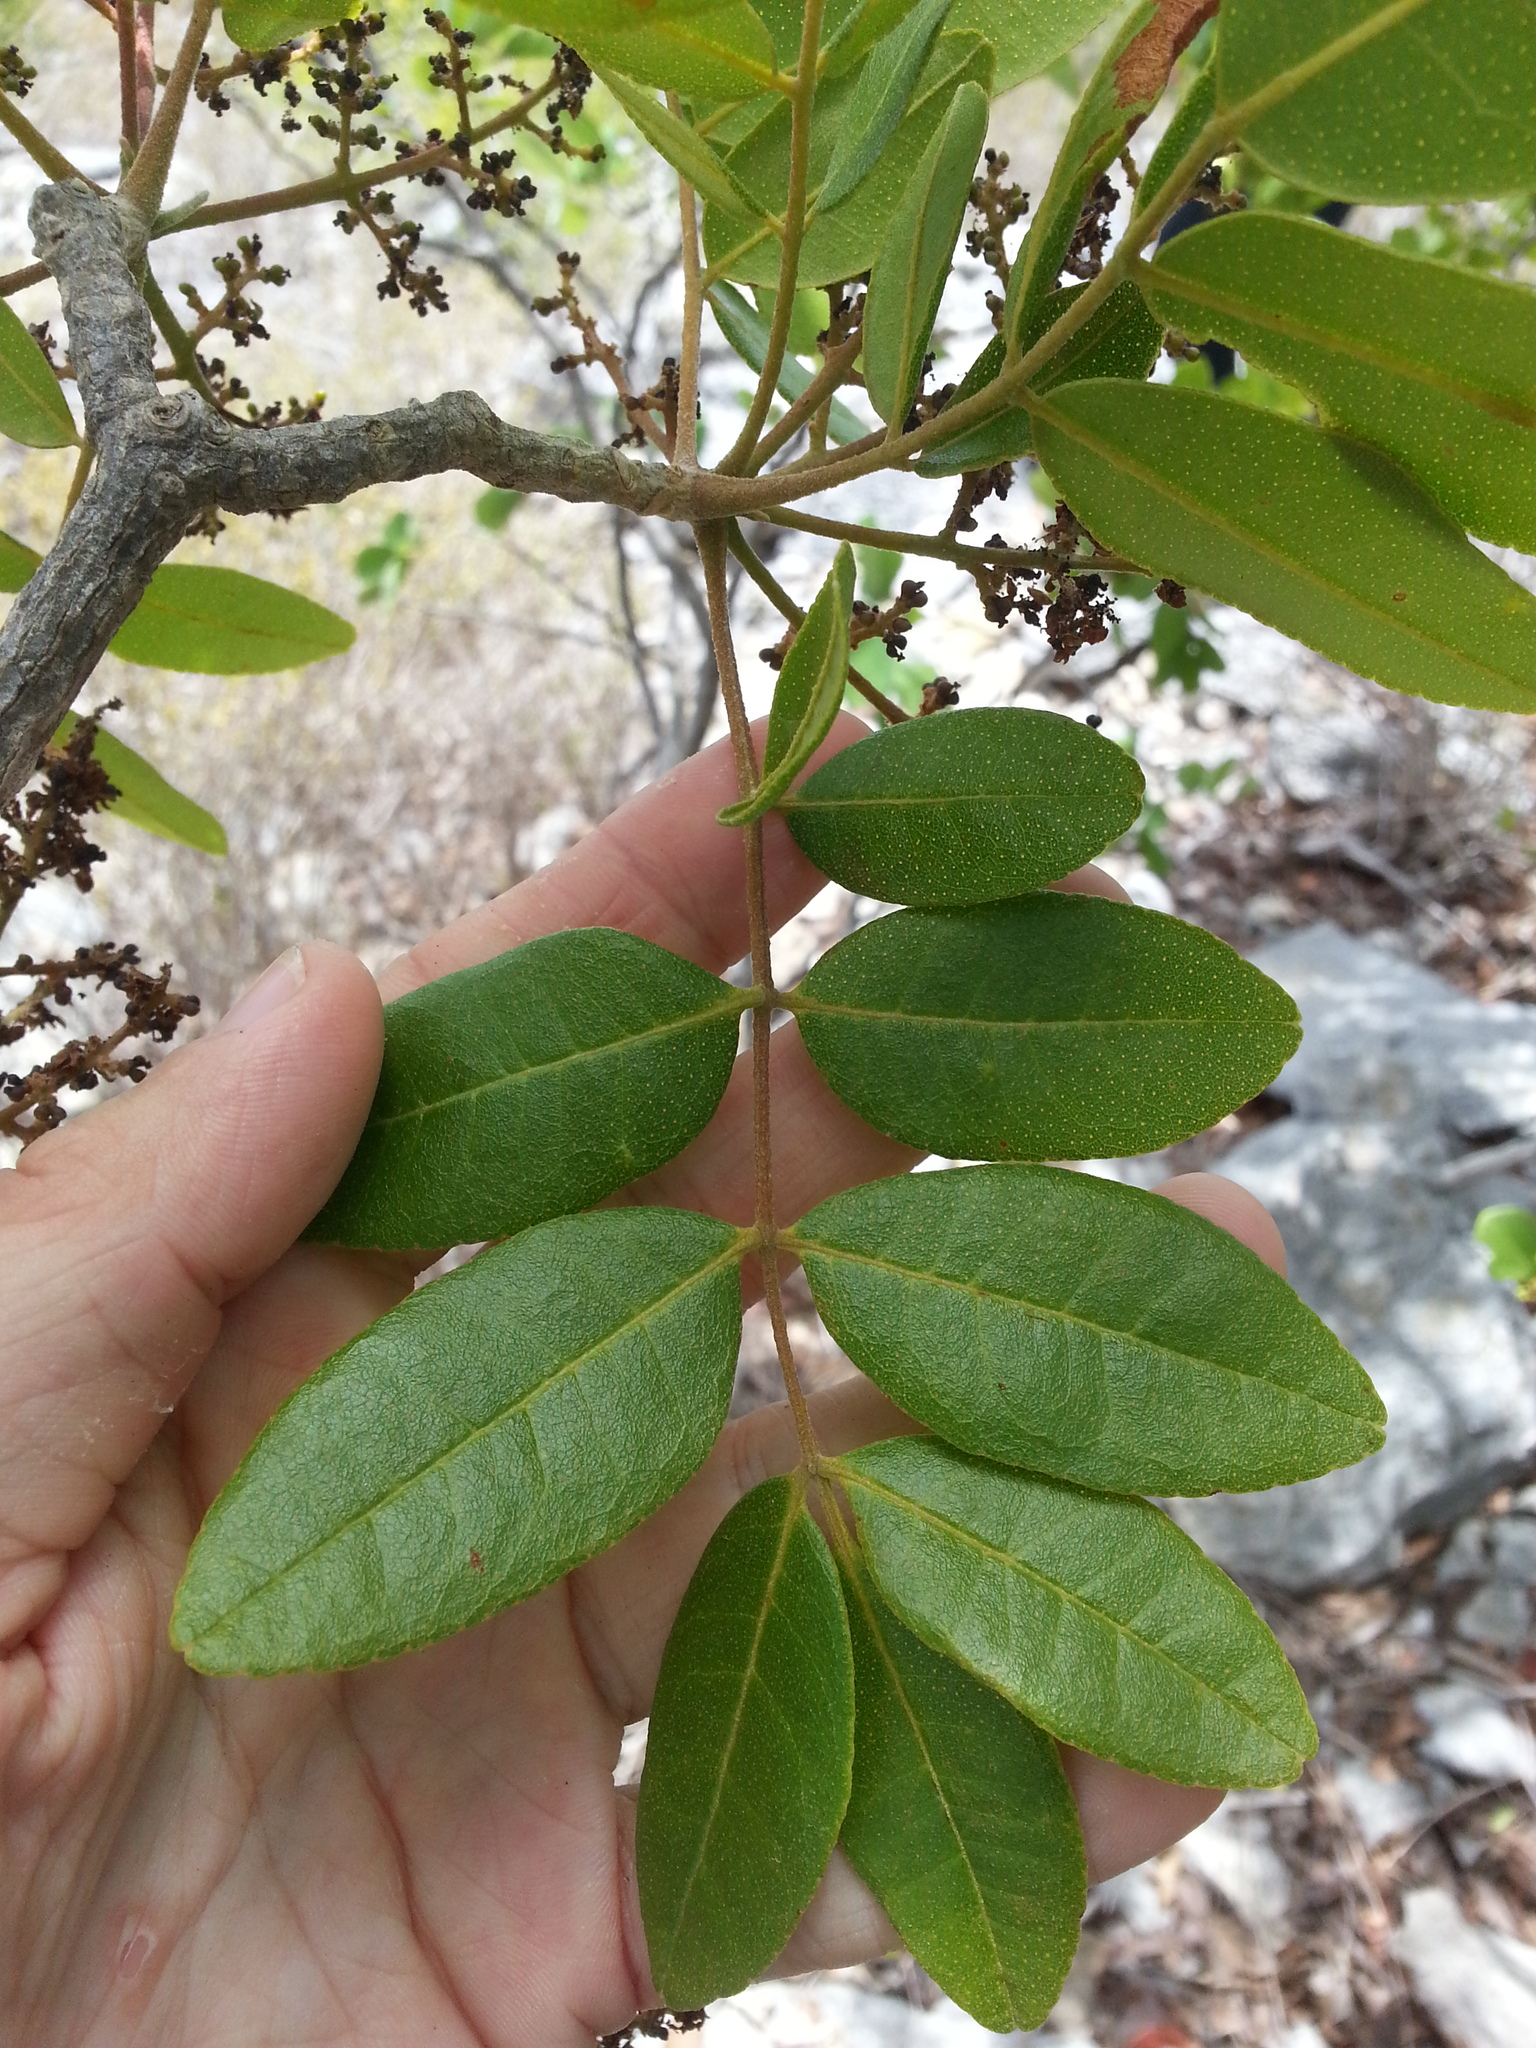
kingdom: Plantae
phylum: Tracheophyta
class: Magnoliopsida
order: Sapindales
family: Rutaceae
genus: Zanthoxylum
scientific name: Zanthoxylum flavum
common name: West indian satinwood
